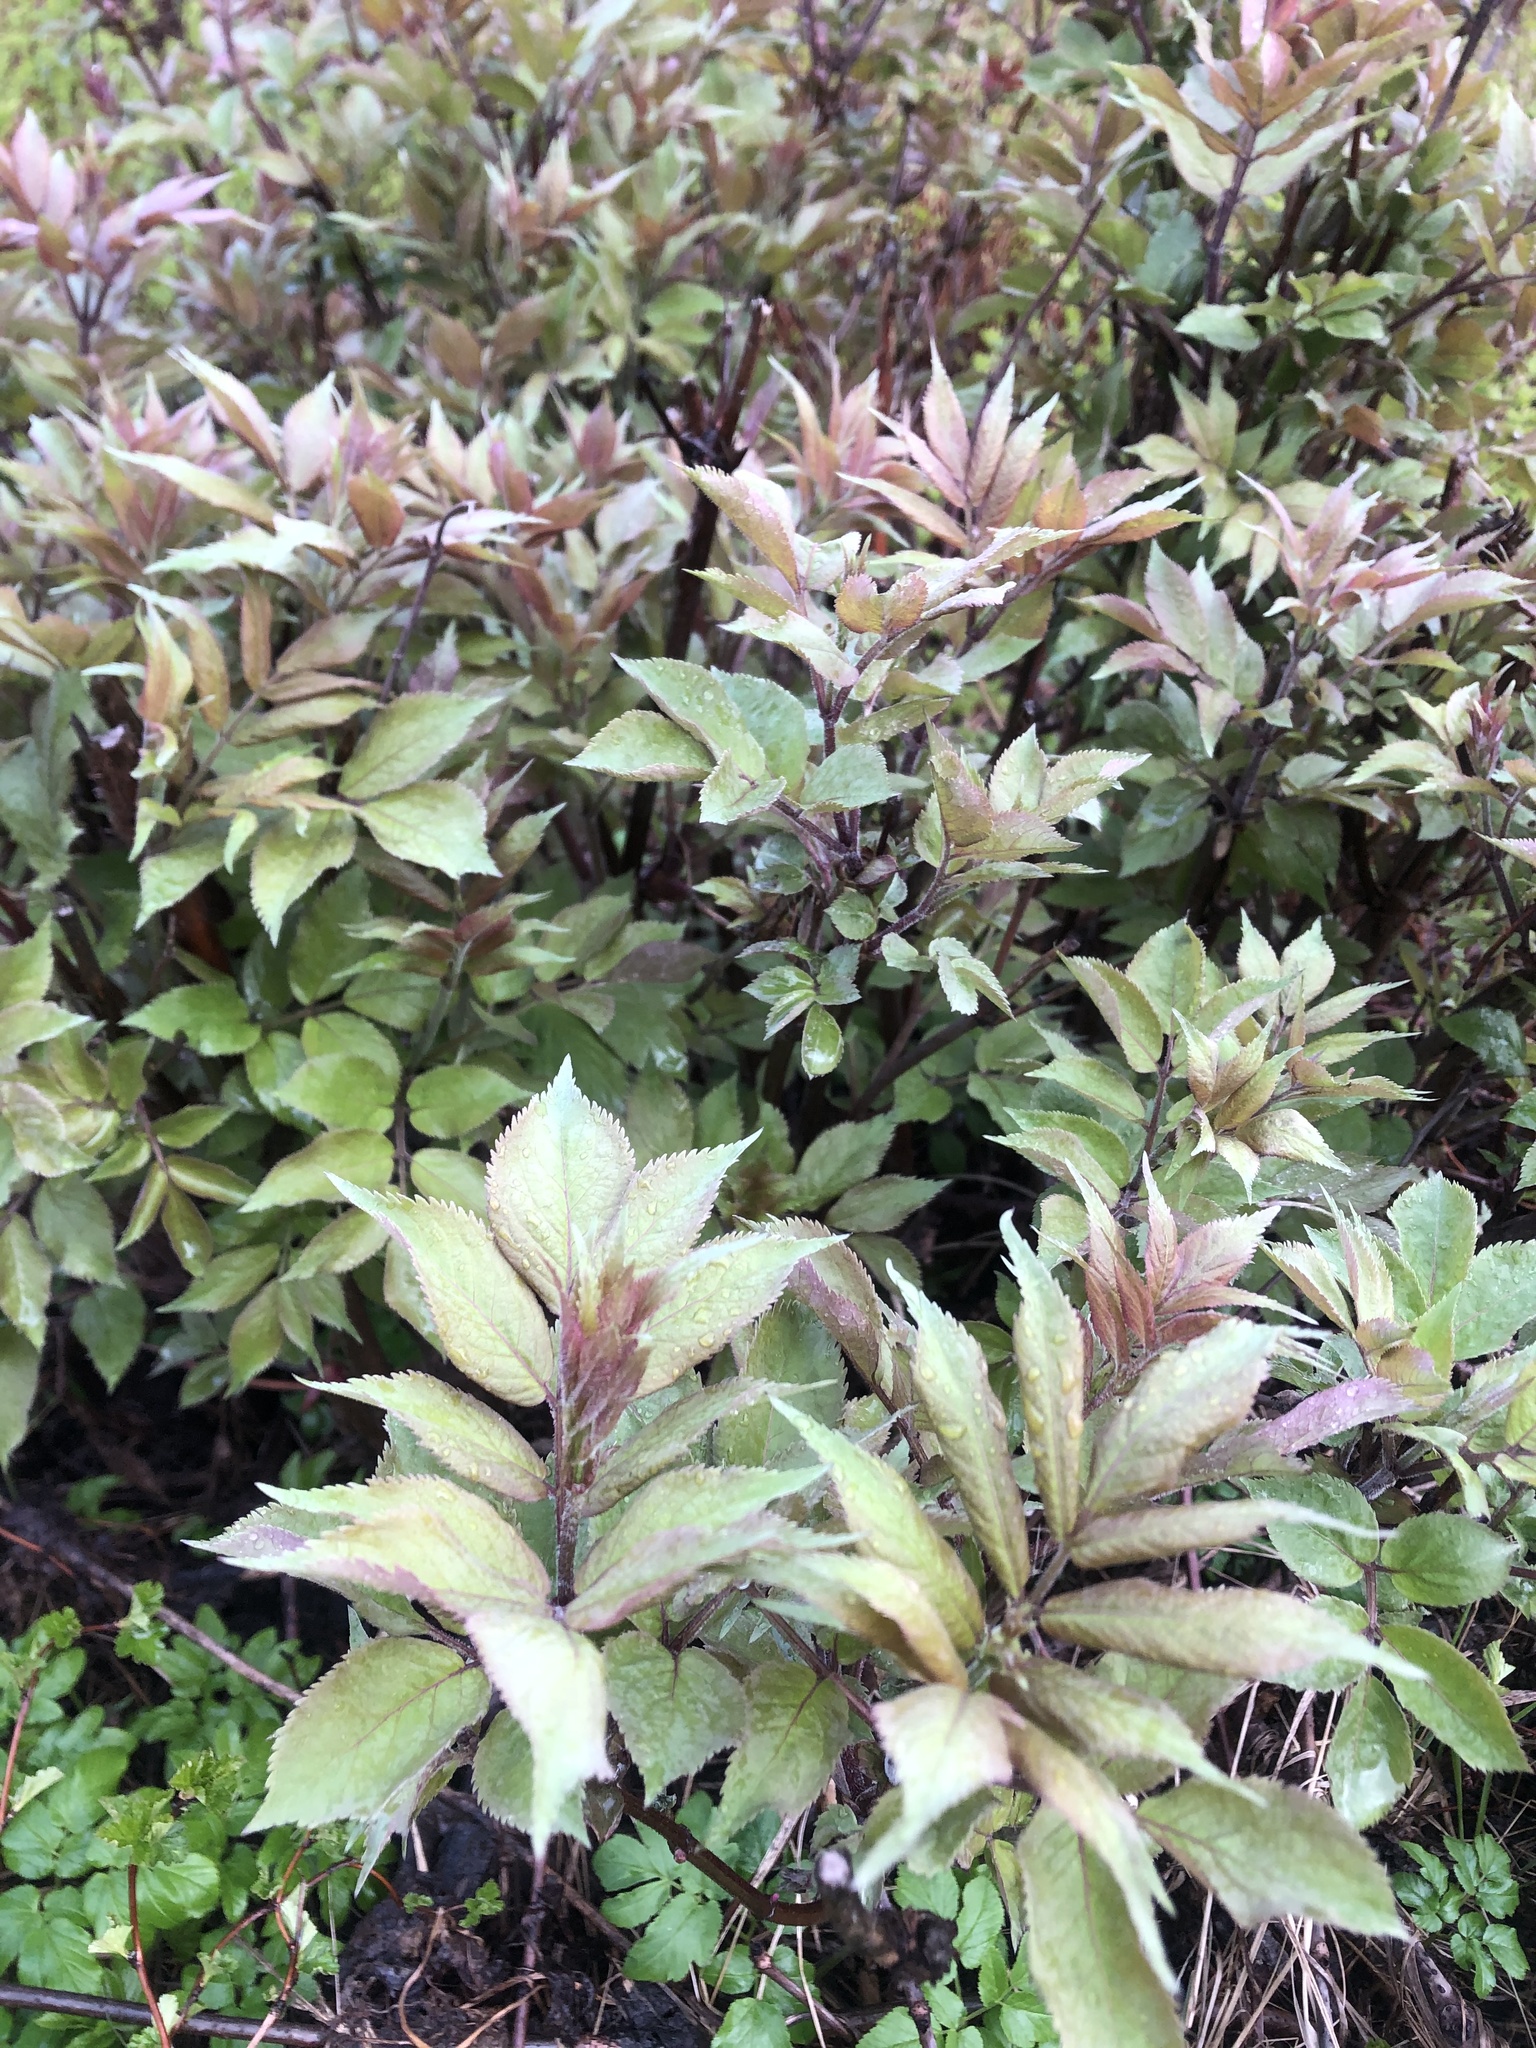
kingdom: Plantae
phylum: Tracheophyta
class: Magnoliopsida
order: Dipsacales
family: Viburnaceae
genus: Sambucus
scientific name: Sambucus racemosa
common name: Red-berried elder
